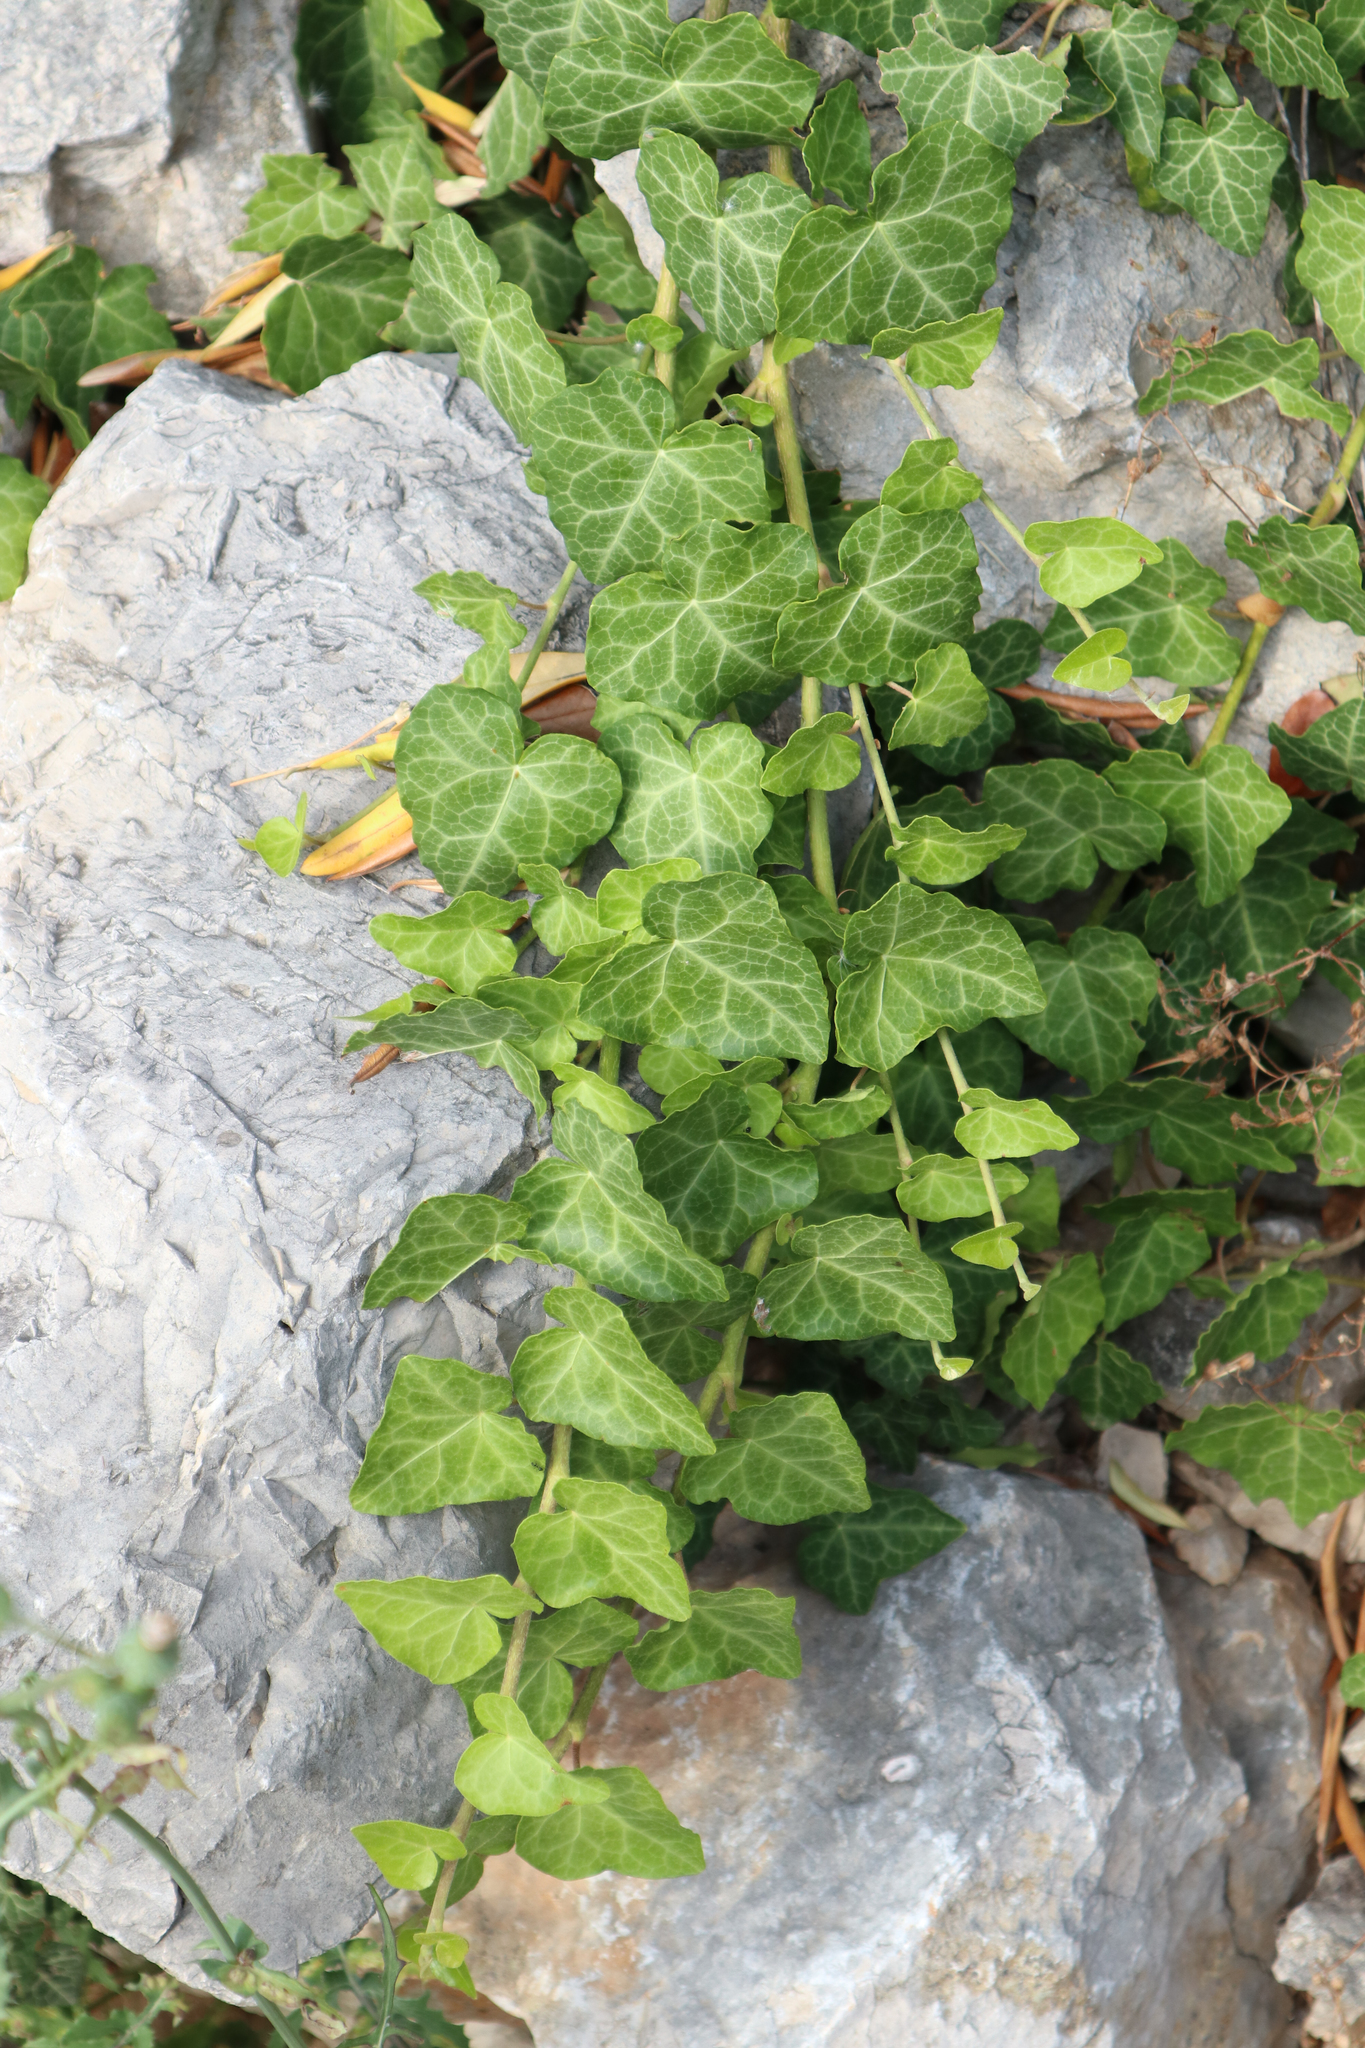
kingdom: Plantae
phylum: Tracheophyta
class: Magnoliopsida
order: Apiales
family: Araliaceae
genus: Hedera
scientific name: Hedera helix
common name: Ivy
